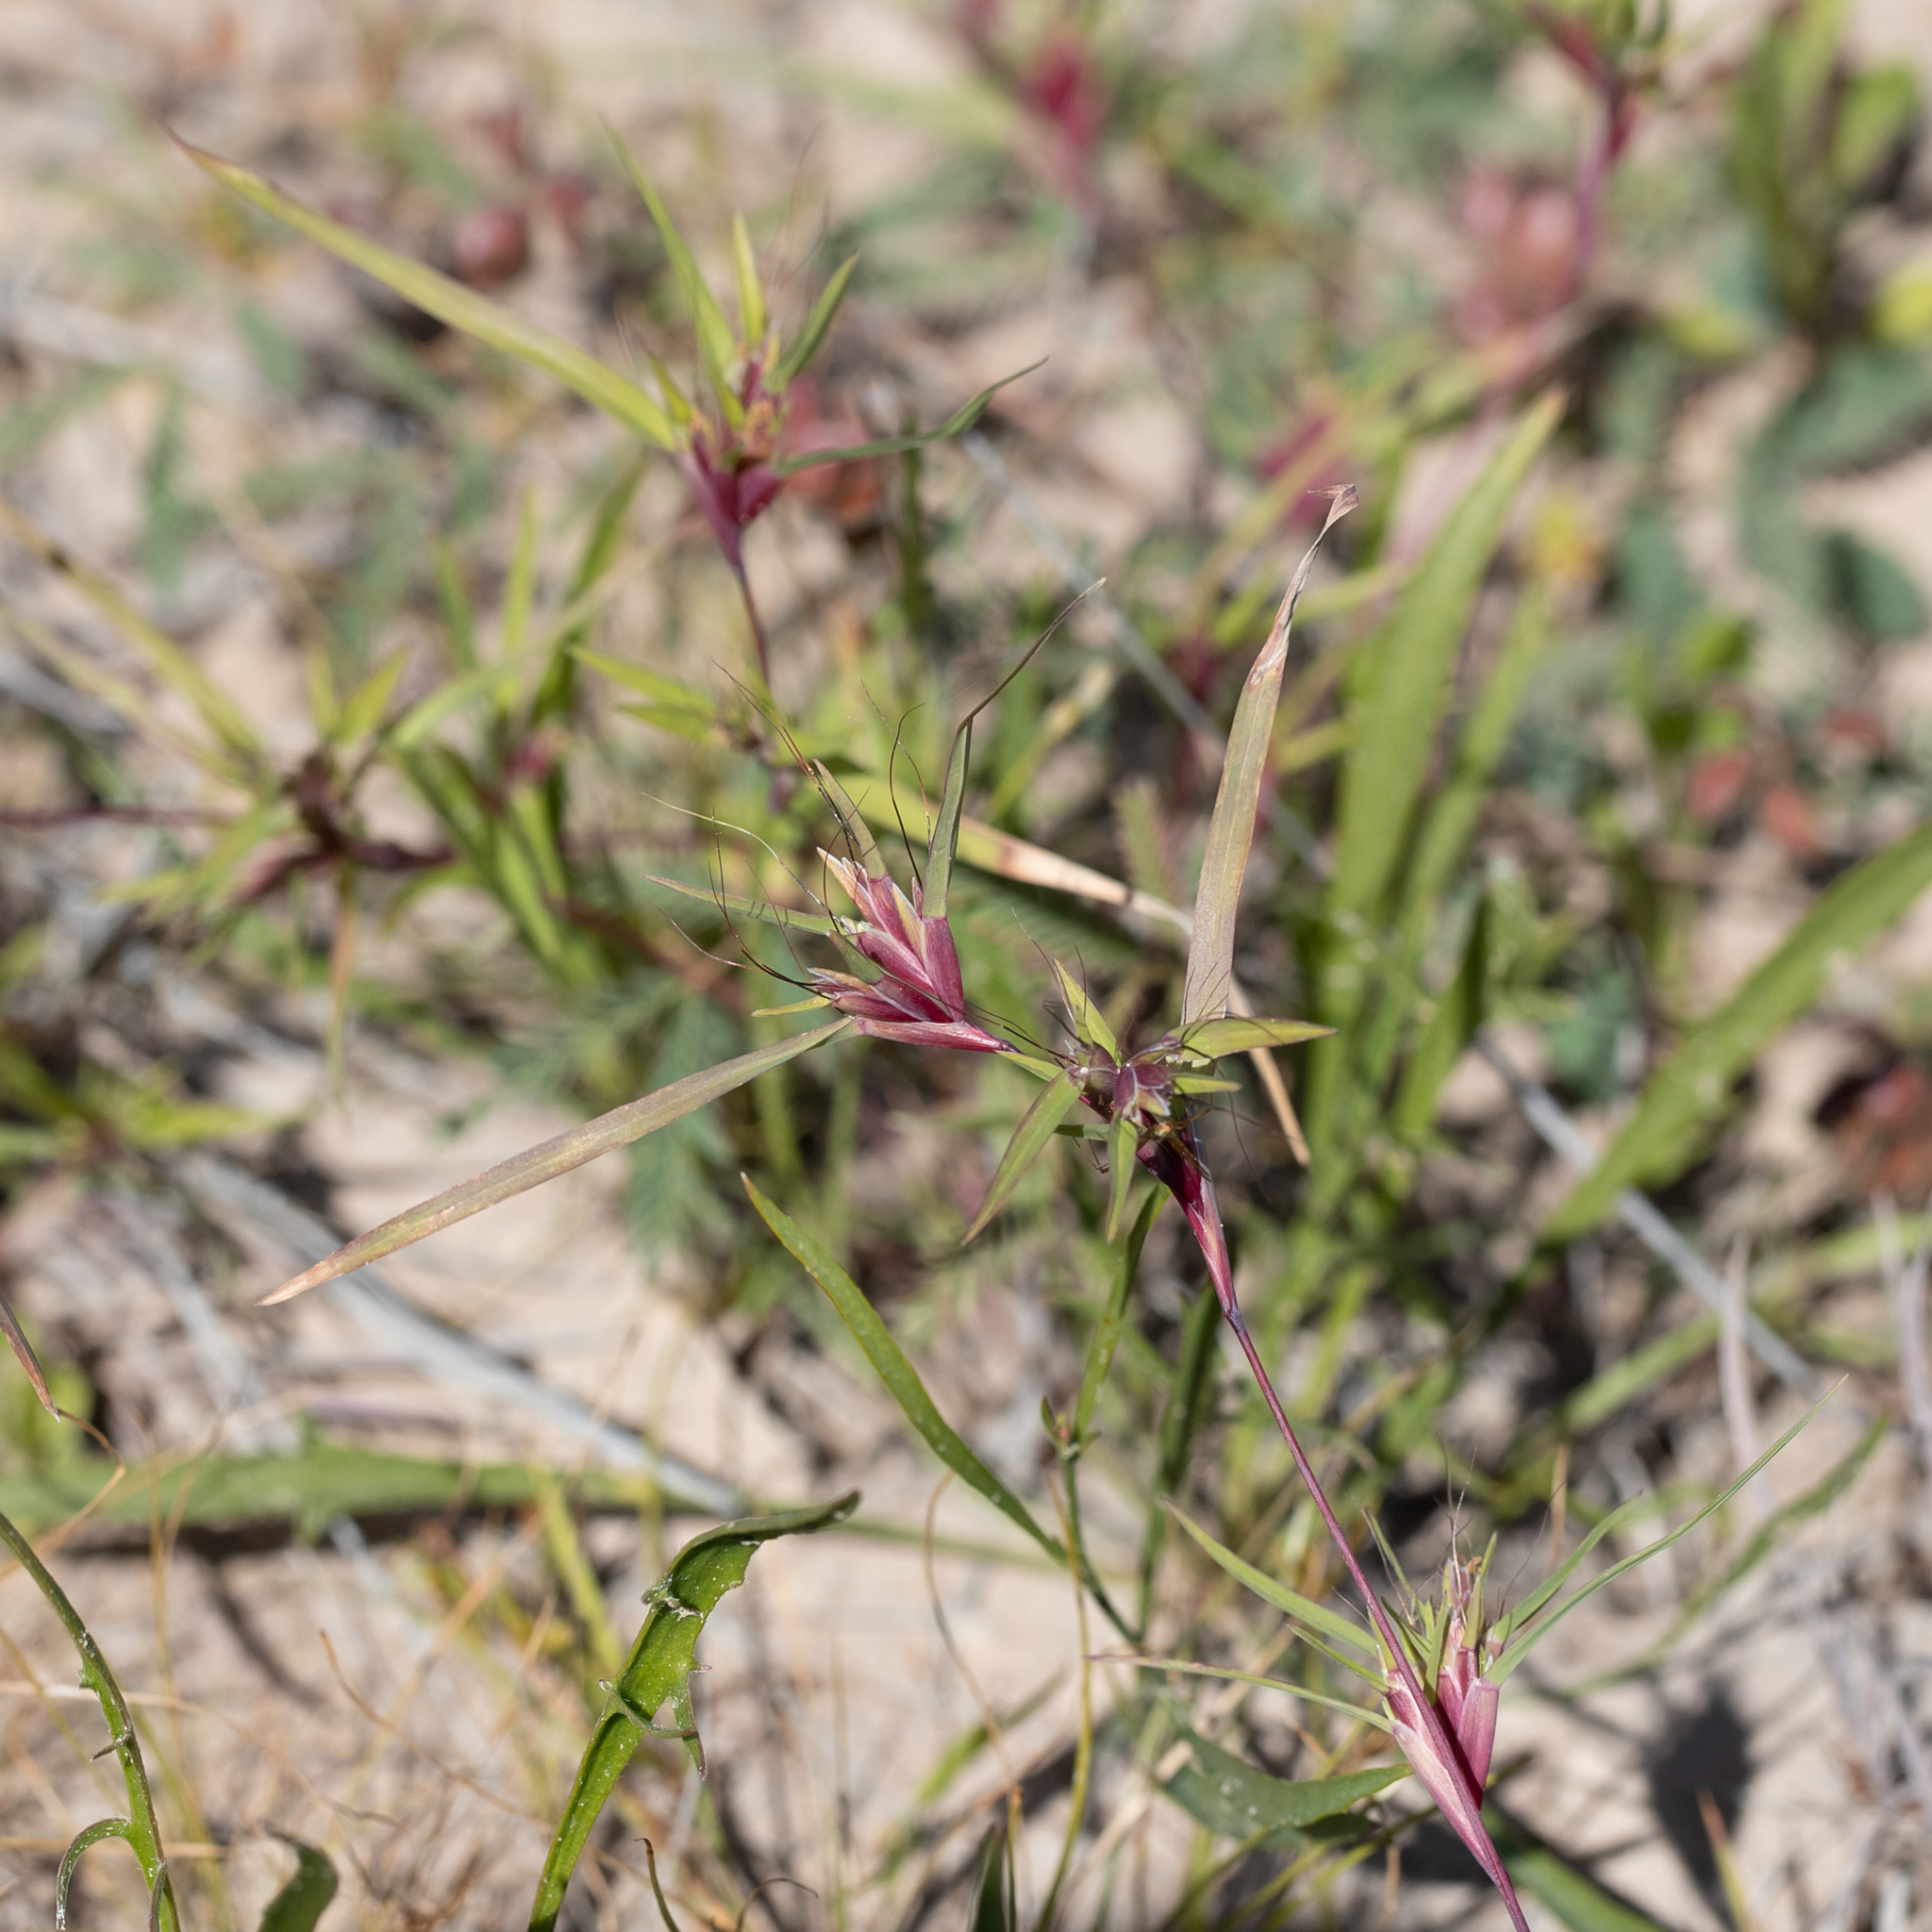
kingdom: Plantae
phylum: Tracheophyta
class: Liliopsida
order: Poales
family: Poaceae
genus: Iseilema
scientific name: Iseilema vaginiflorum
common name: Red flinders grass
